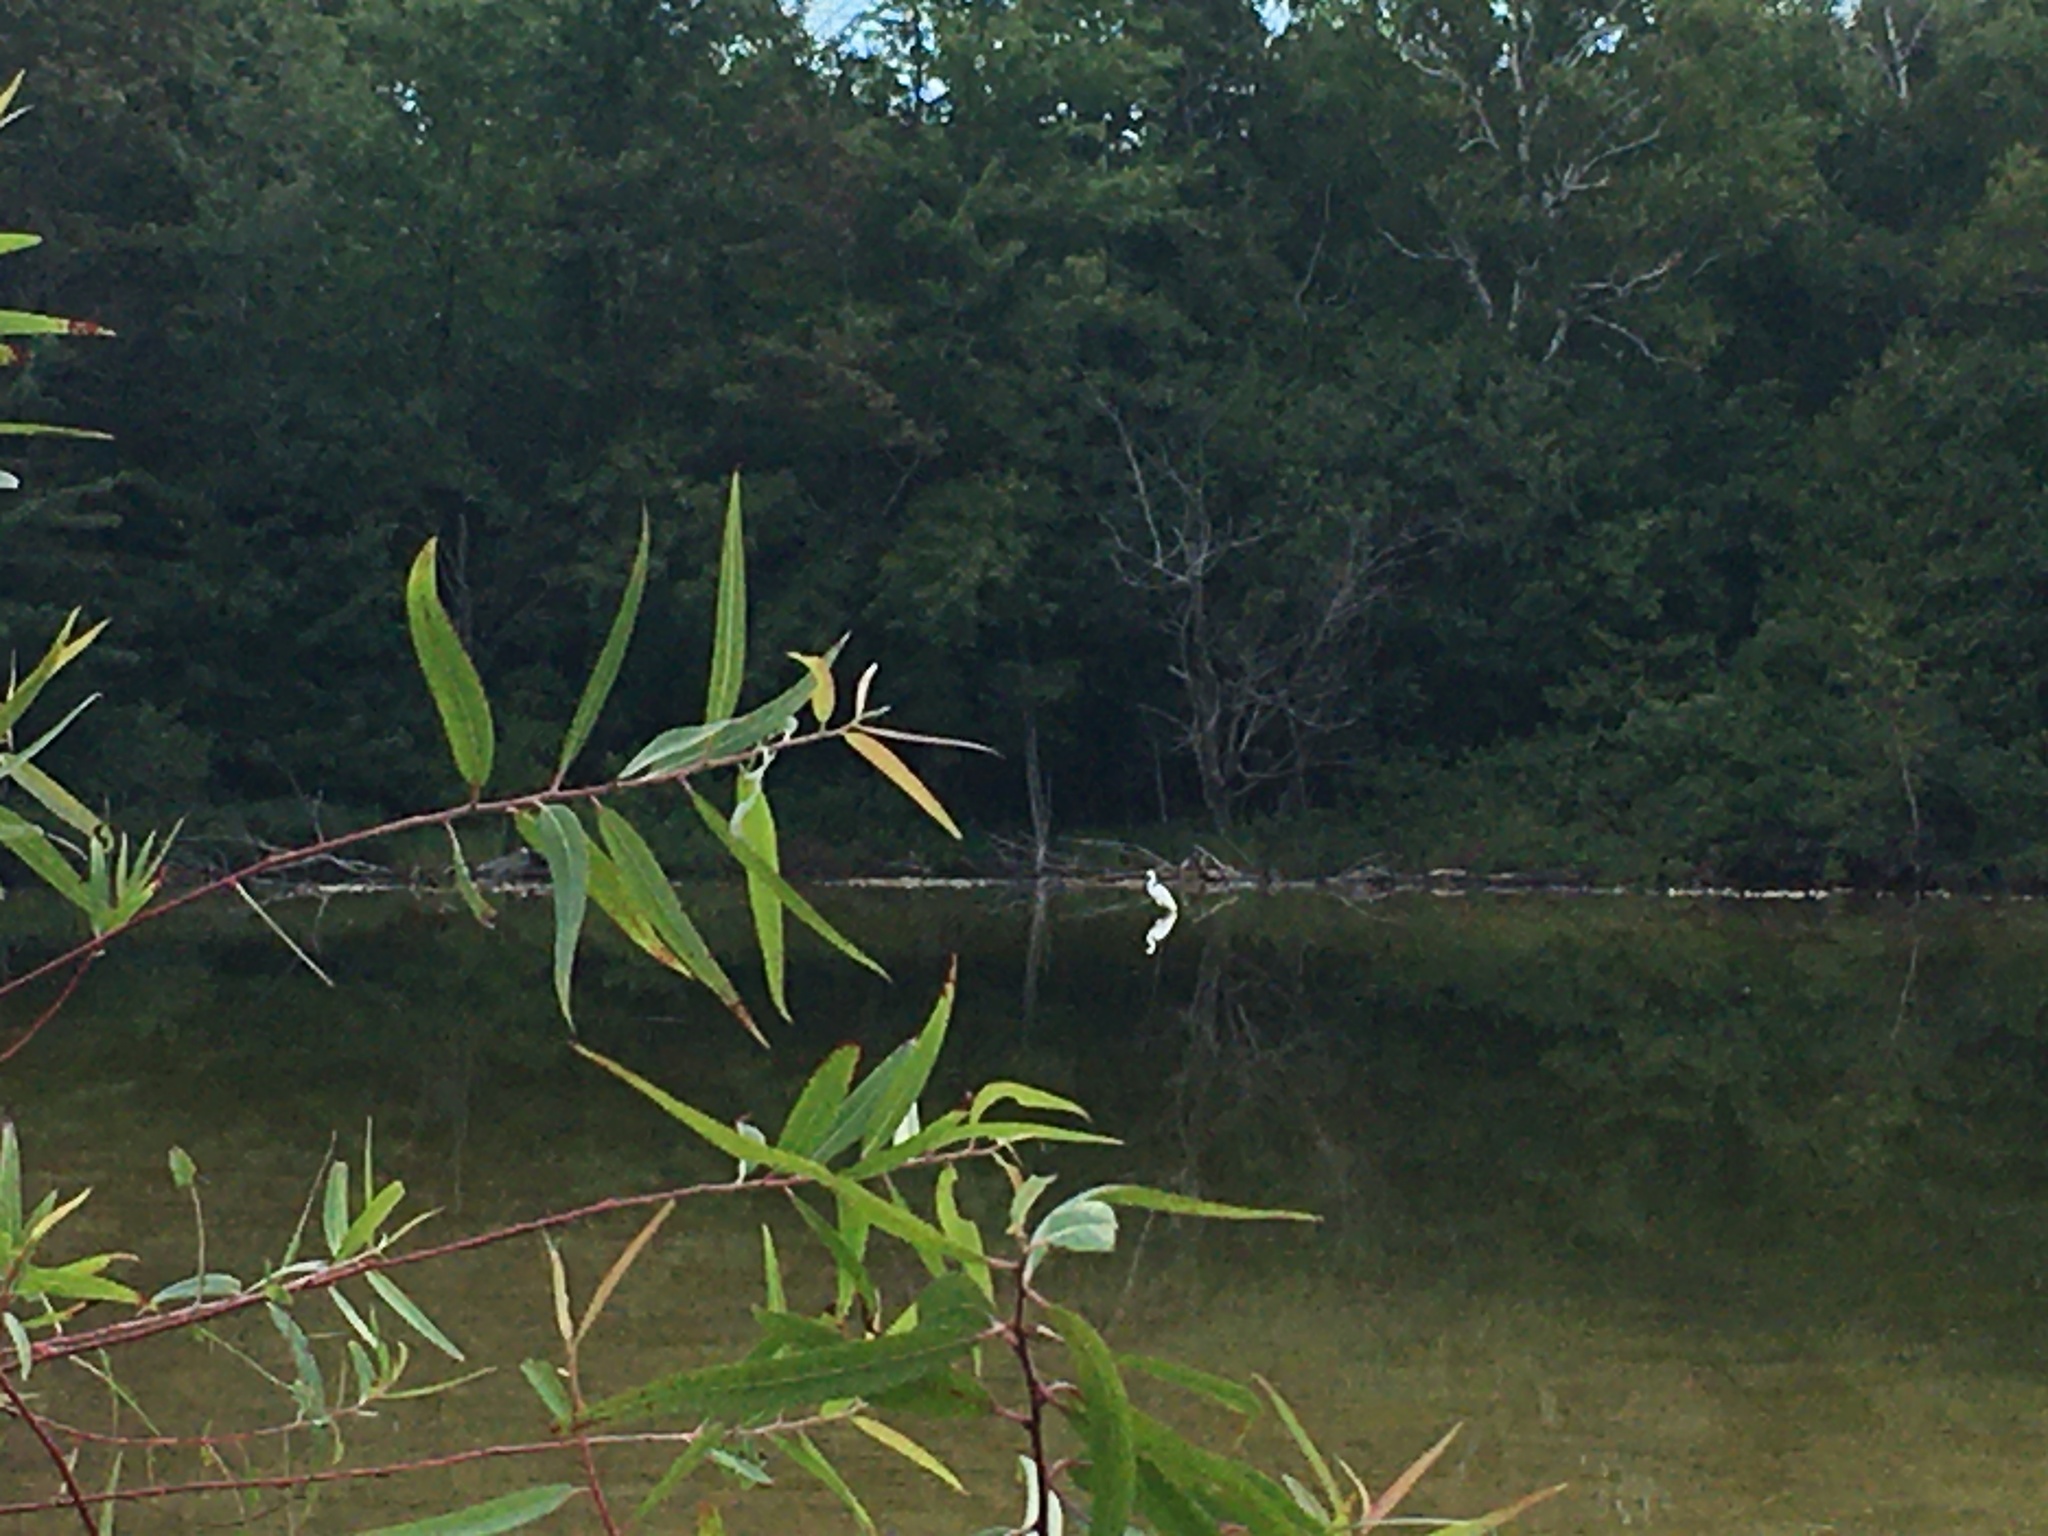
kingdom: Animalia
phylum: Chordata
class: Aves
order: Pelecaniformes
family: Ardeidae
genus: Ardea
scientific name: Ardea alba
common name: Great egret
